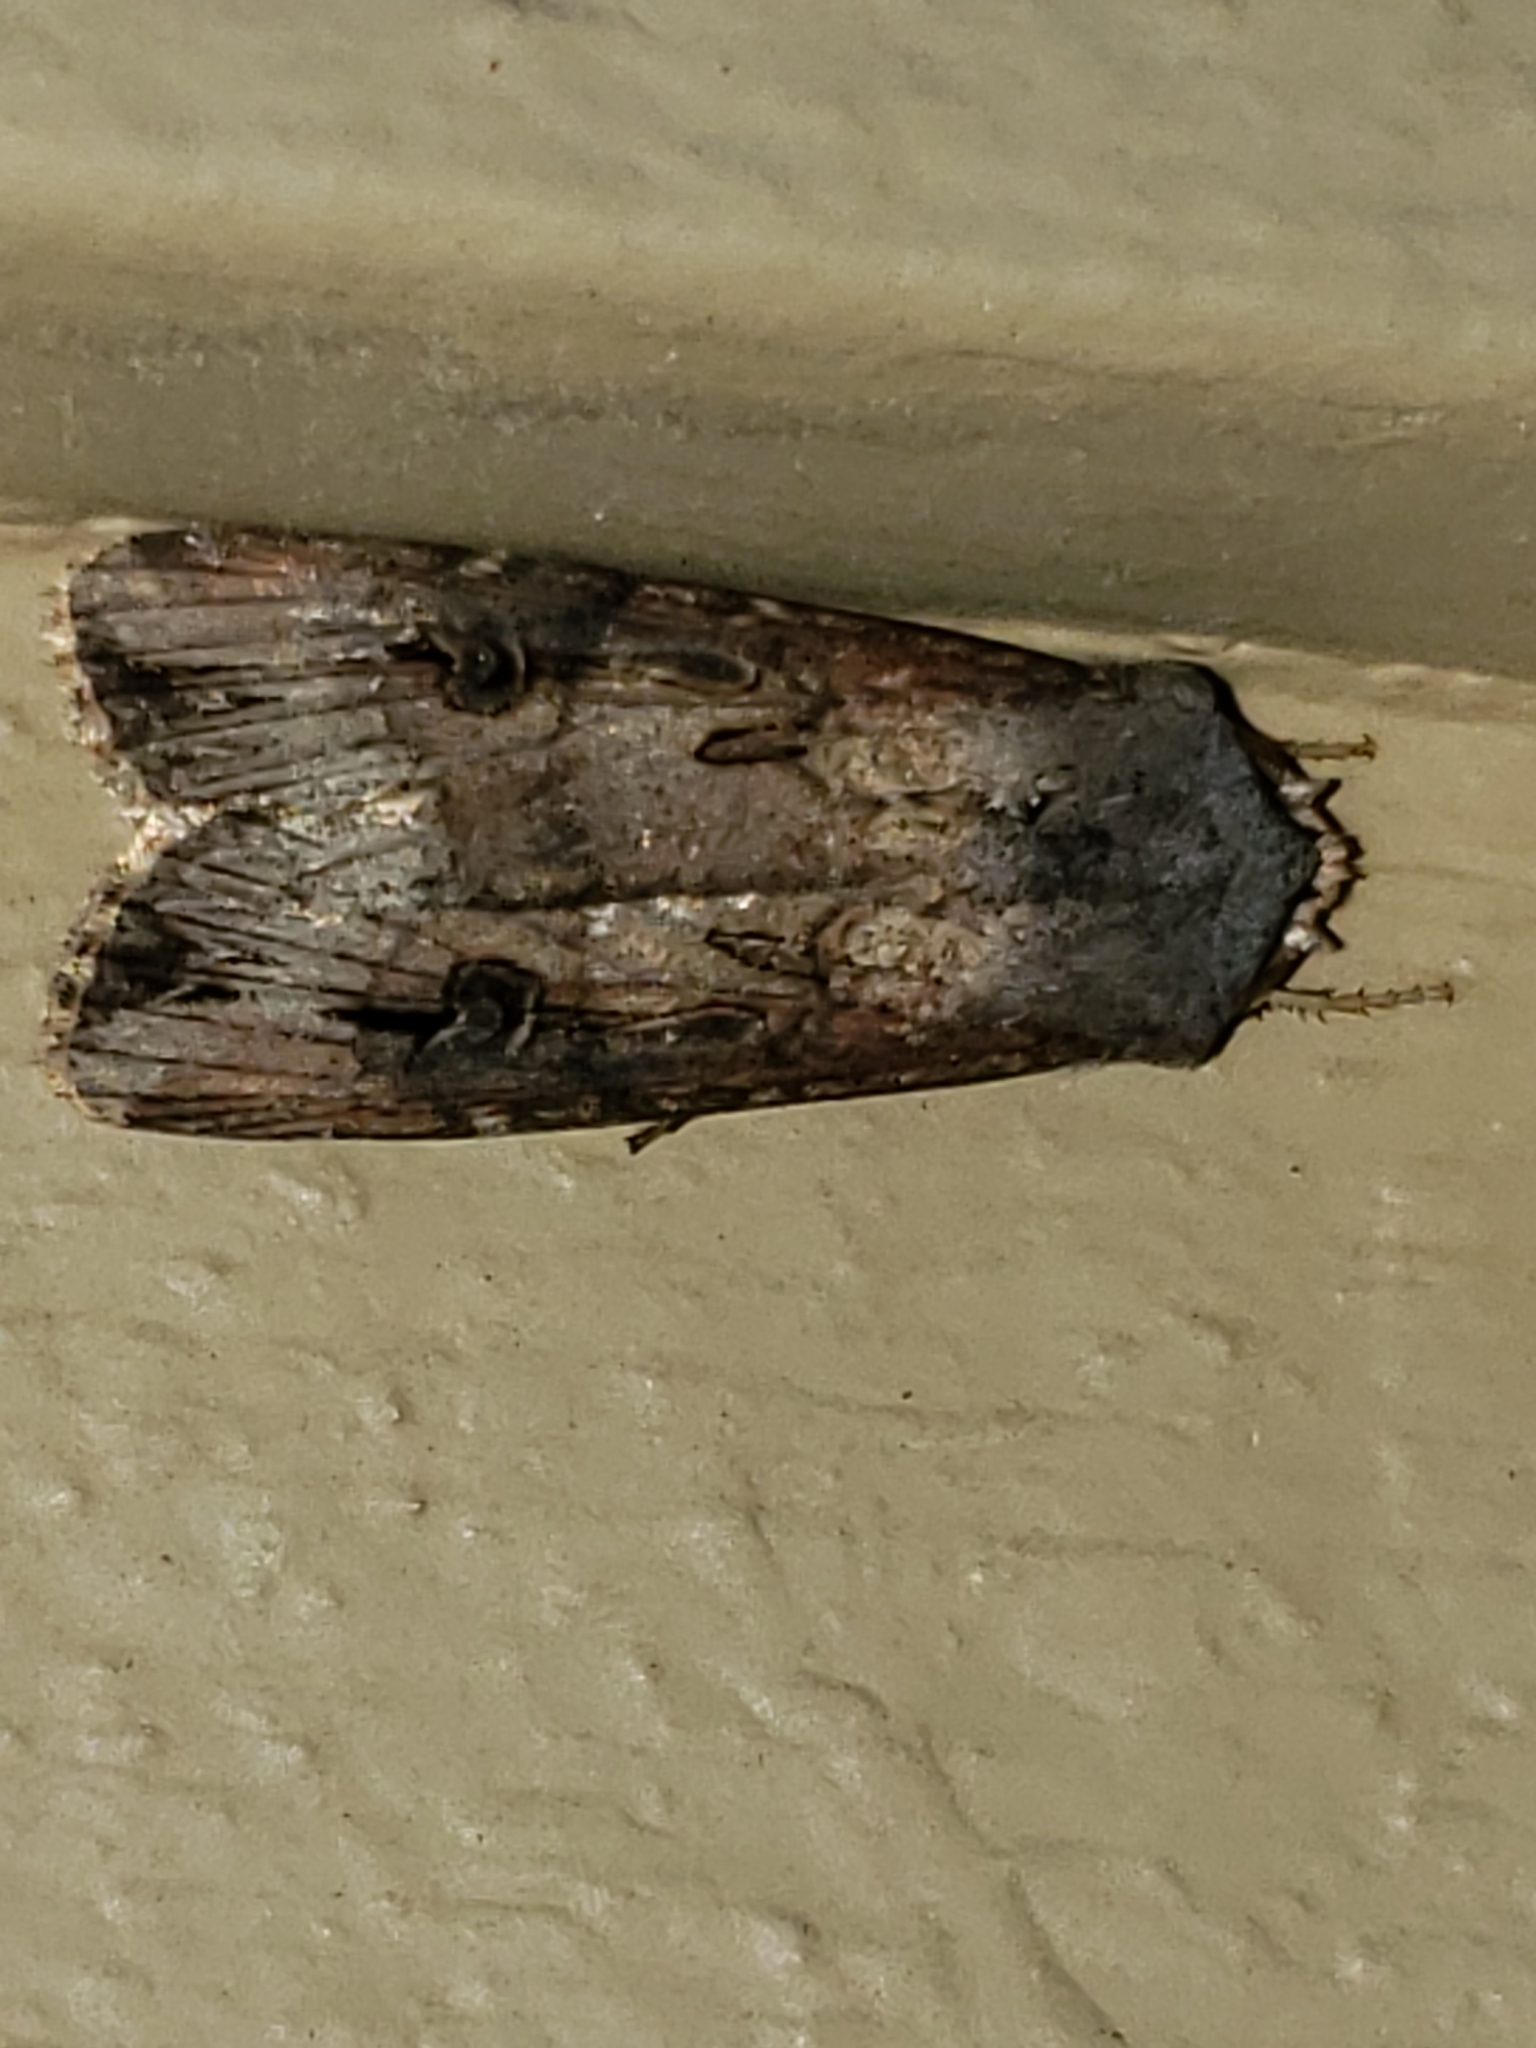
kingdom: Animalia
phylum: Arthropoda
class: Insecta
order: Lepidoptera
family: Noctuidae
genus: Agrotis
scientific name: Agrotis ipsilon
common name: Dark sword-grass
